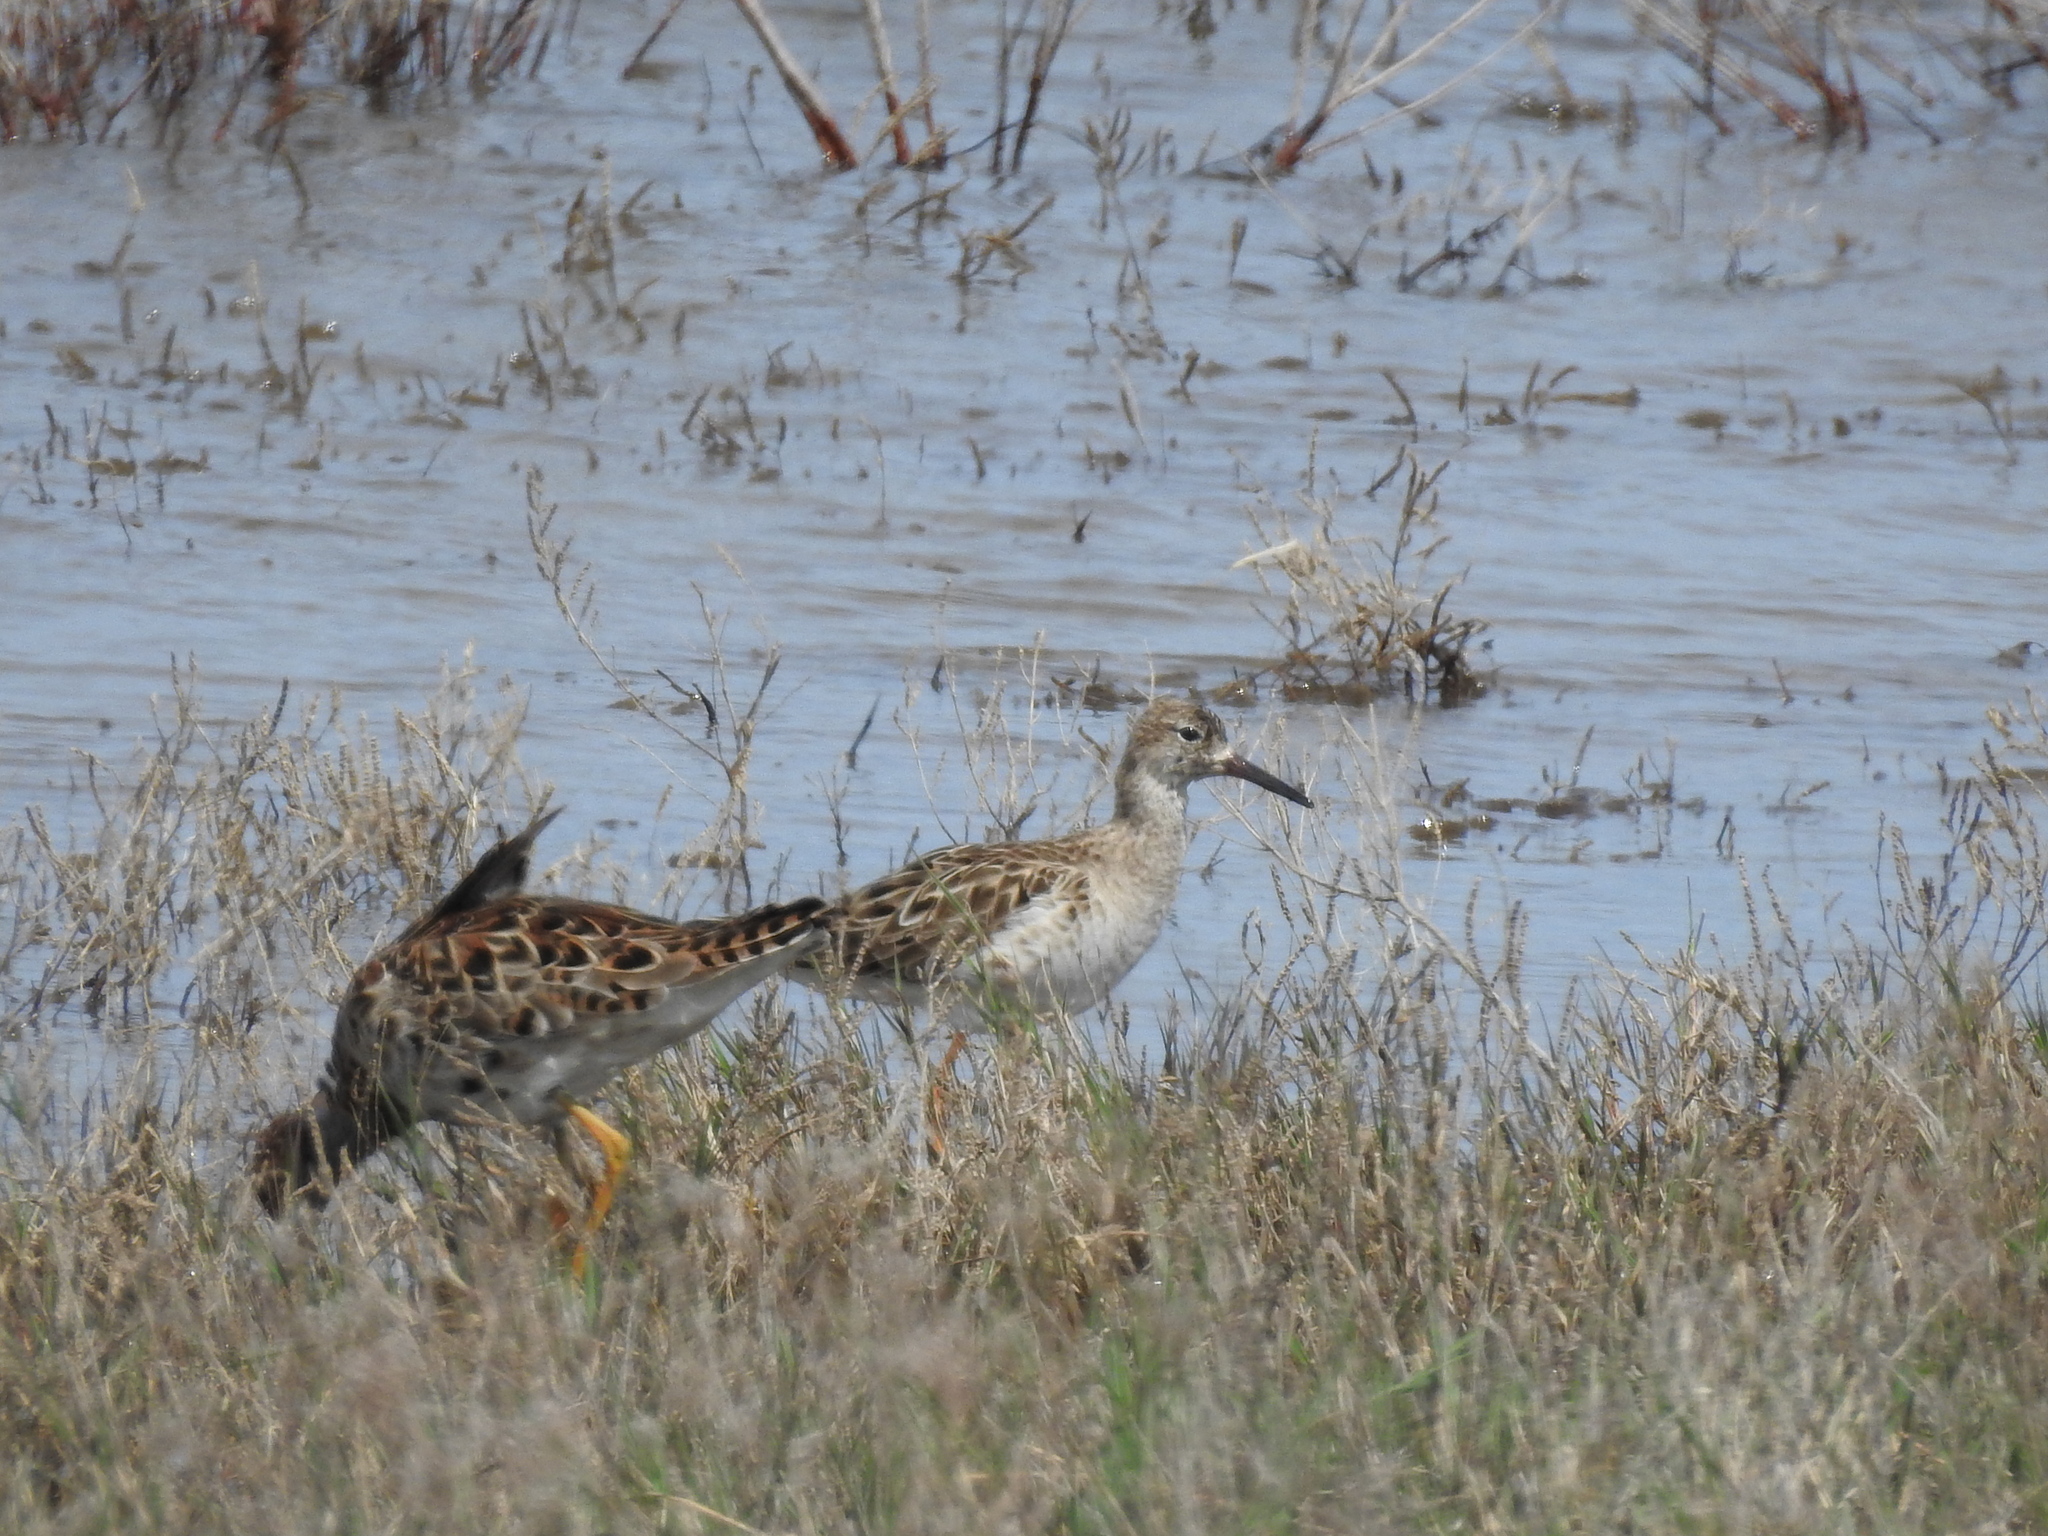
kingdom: Animalia
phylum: Chordata
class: Aves
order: Charadriiformes
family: Scolopacidae
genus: Calidris
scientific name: Calidris pugnax
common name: Ruff
